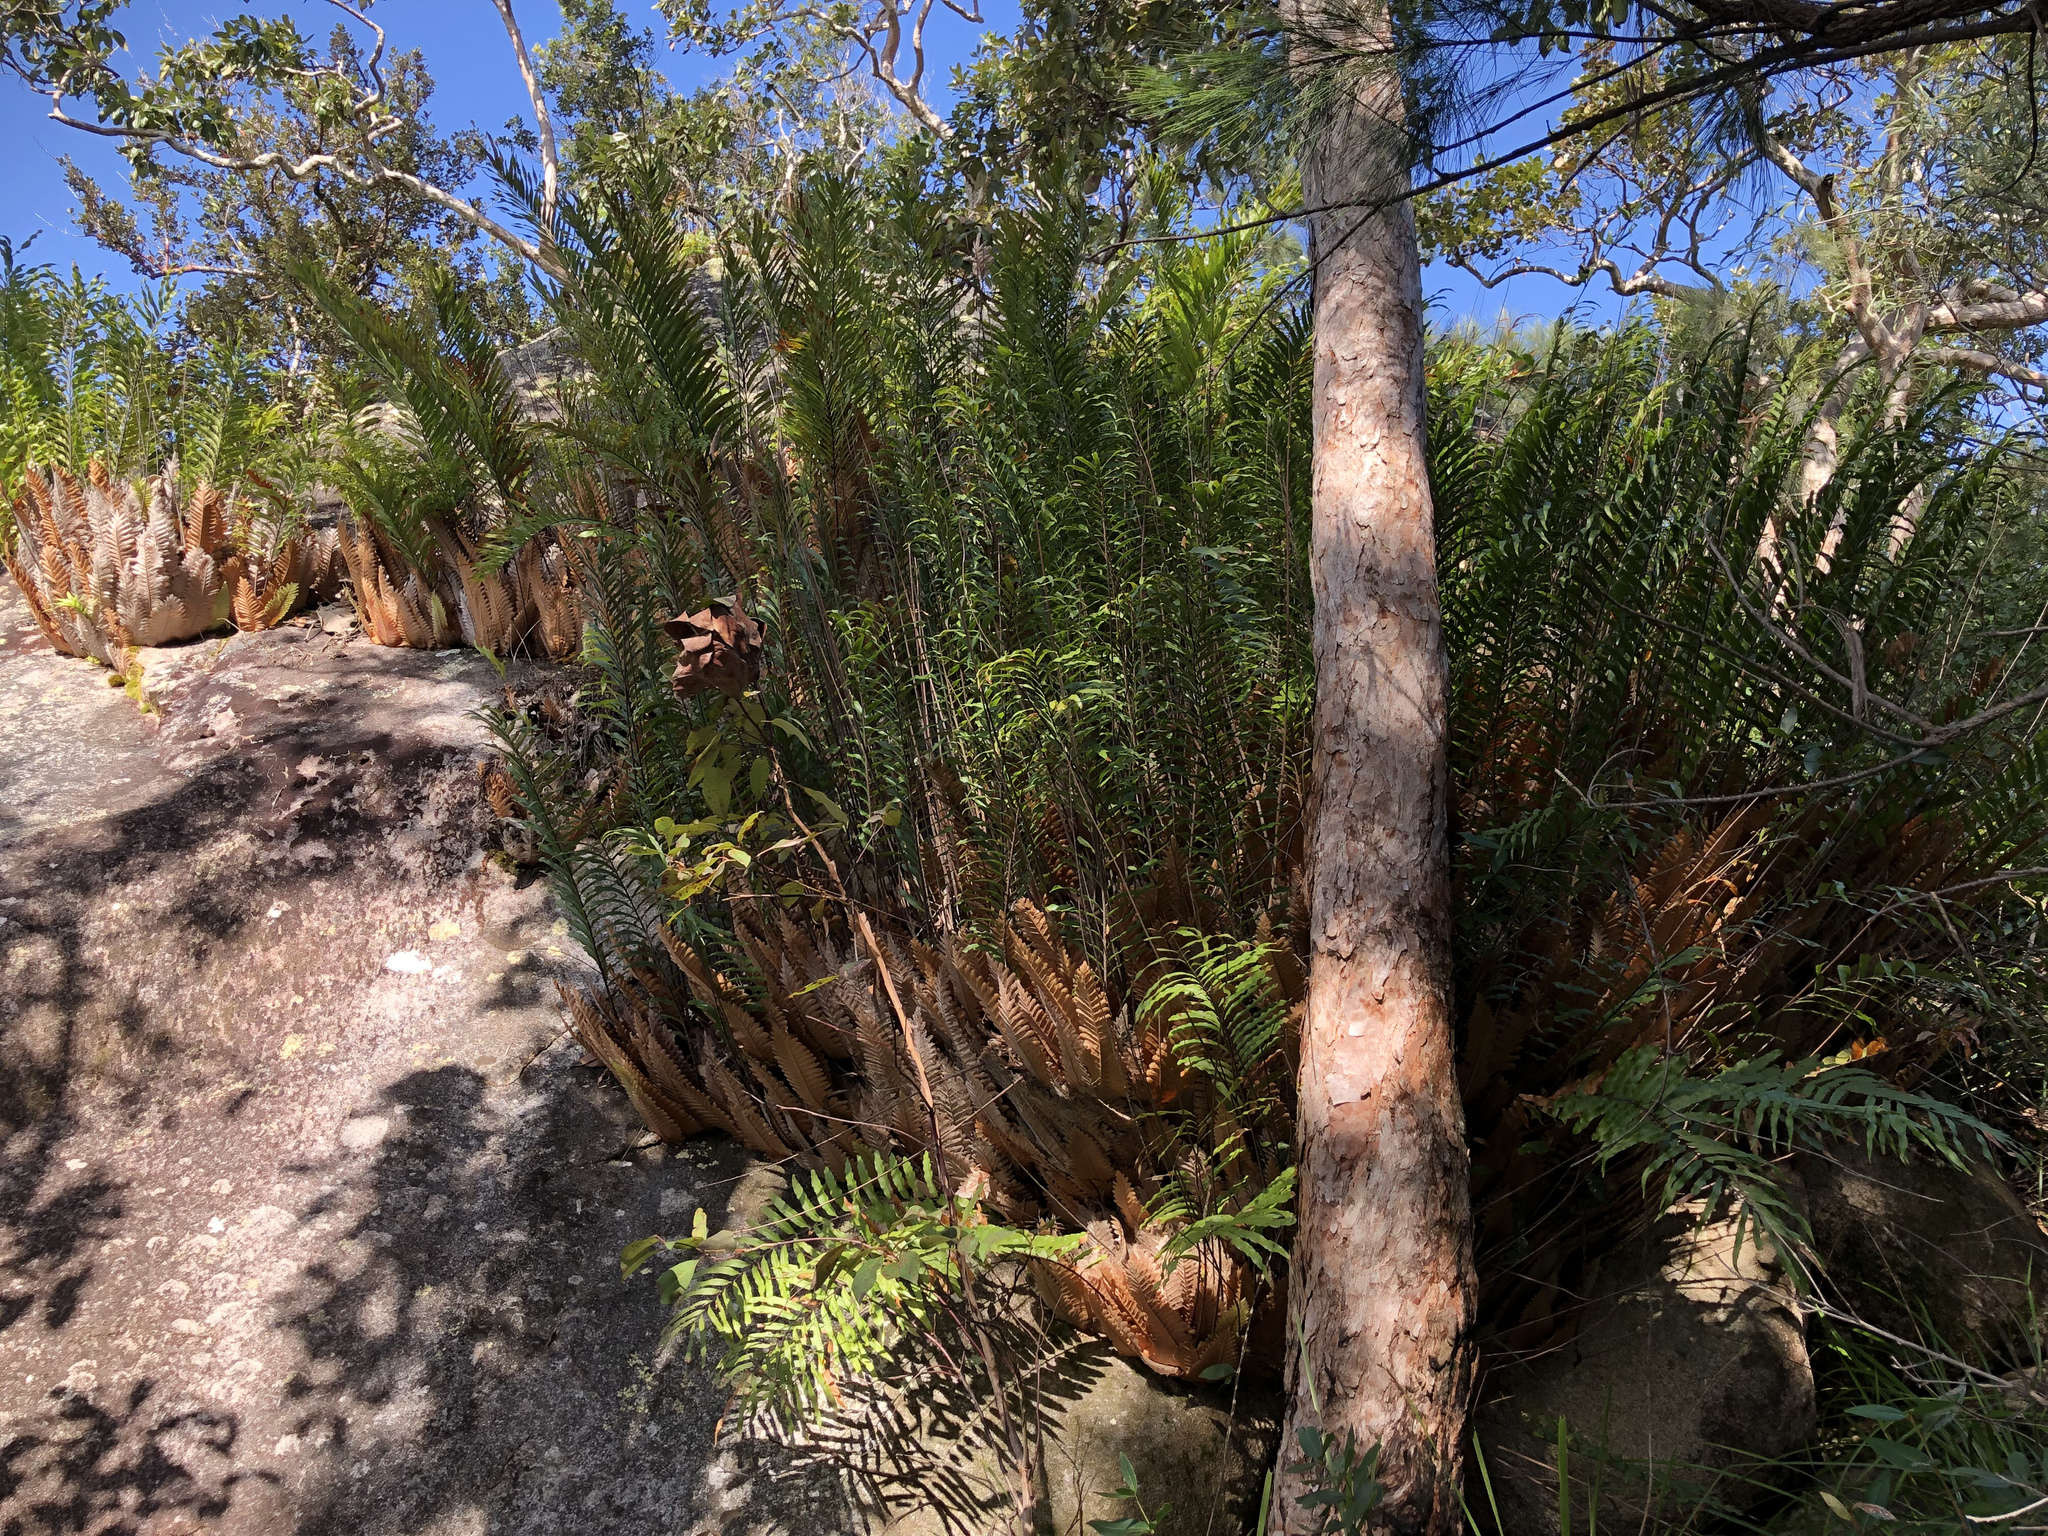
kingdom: Plantae
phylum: Tracheophyta
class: Polypodiopsida
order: Polypodiales
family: Polypodiaceae
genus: Drynaria
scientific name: Drynaria rigidula
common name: Basket fern
